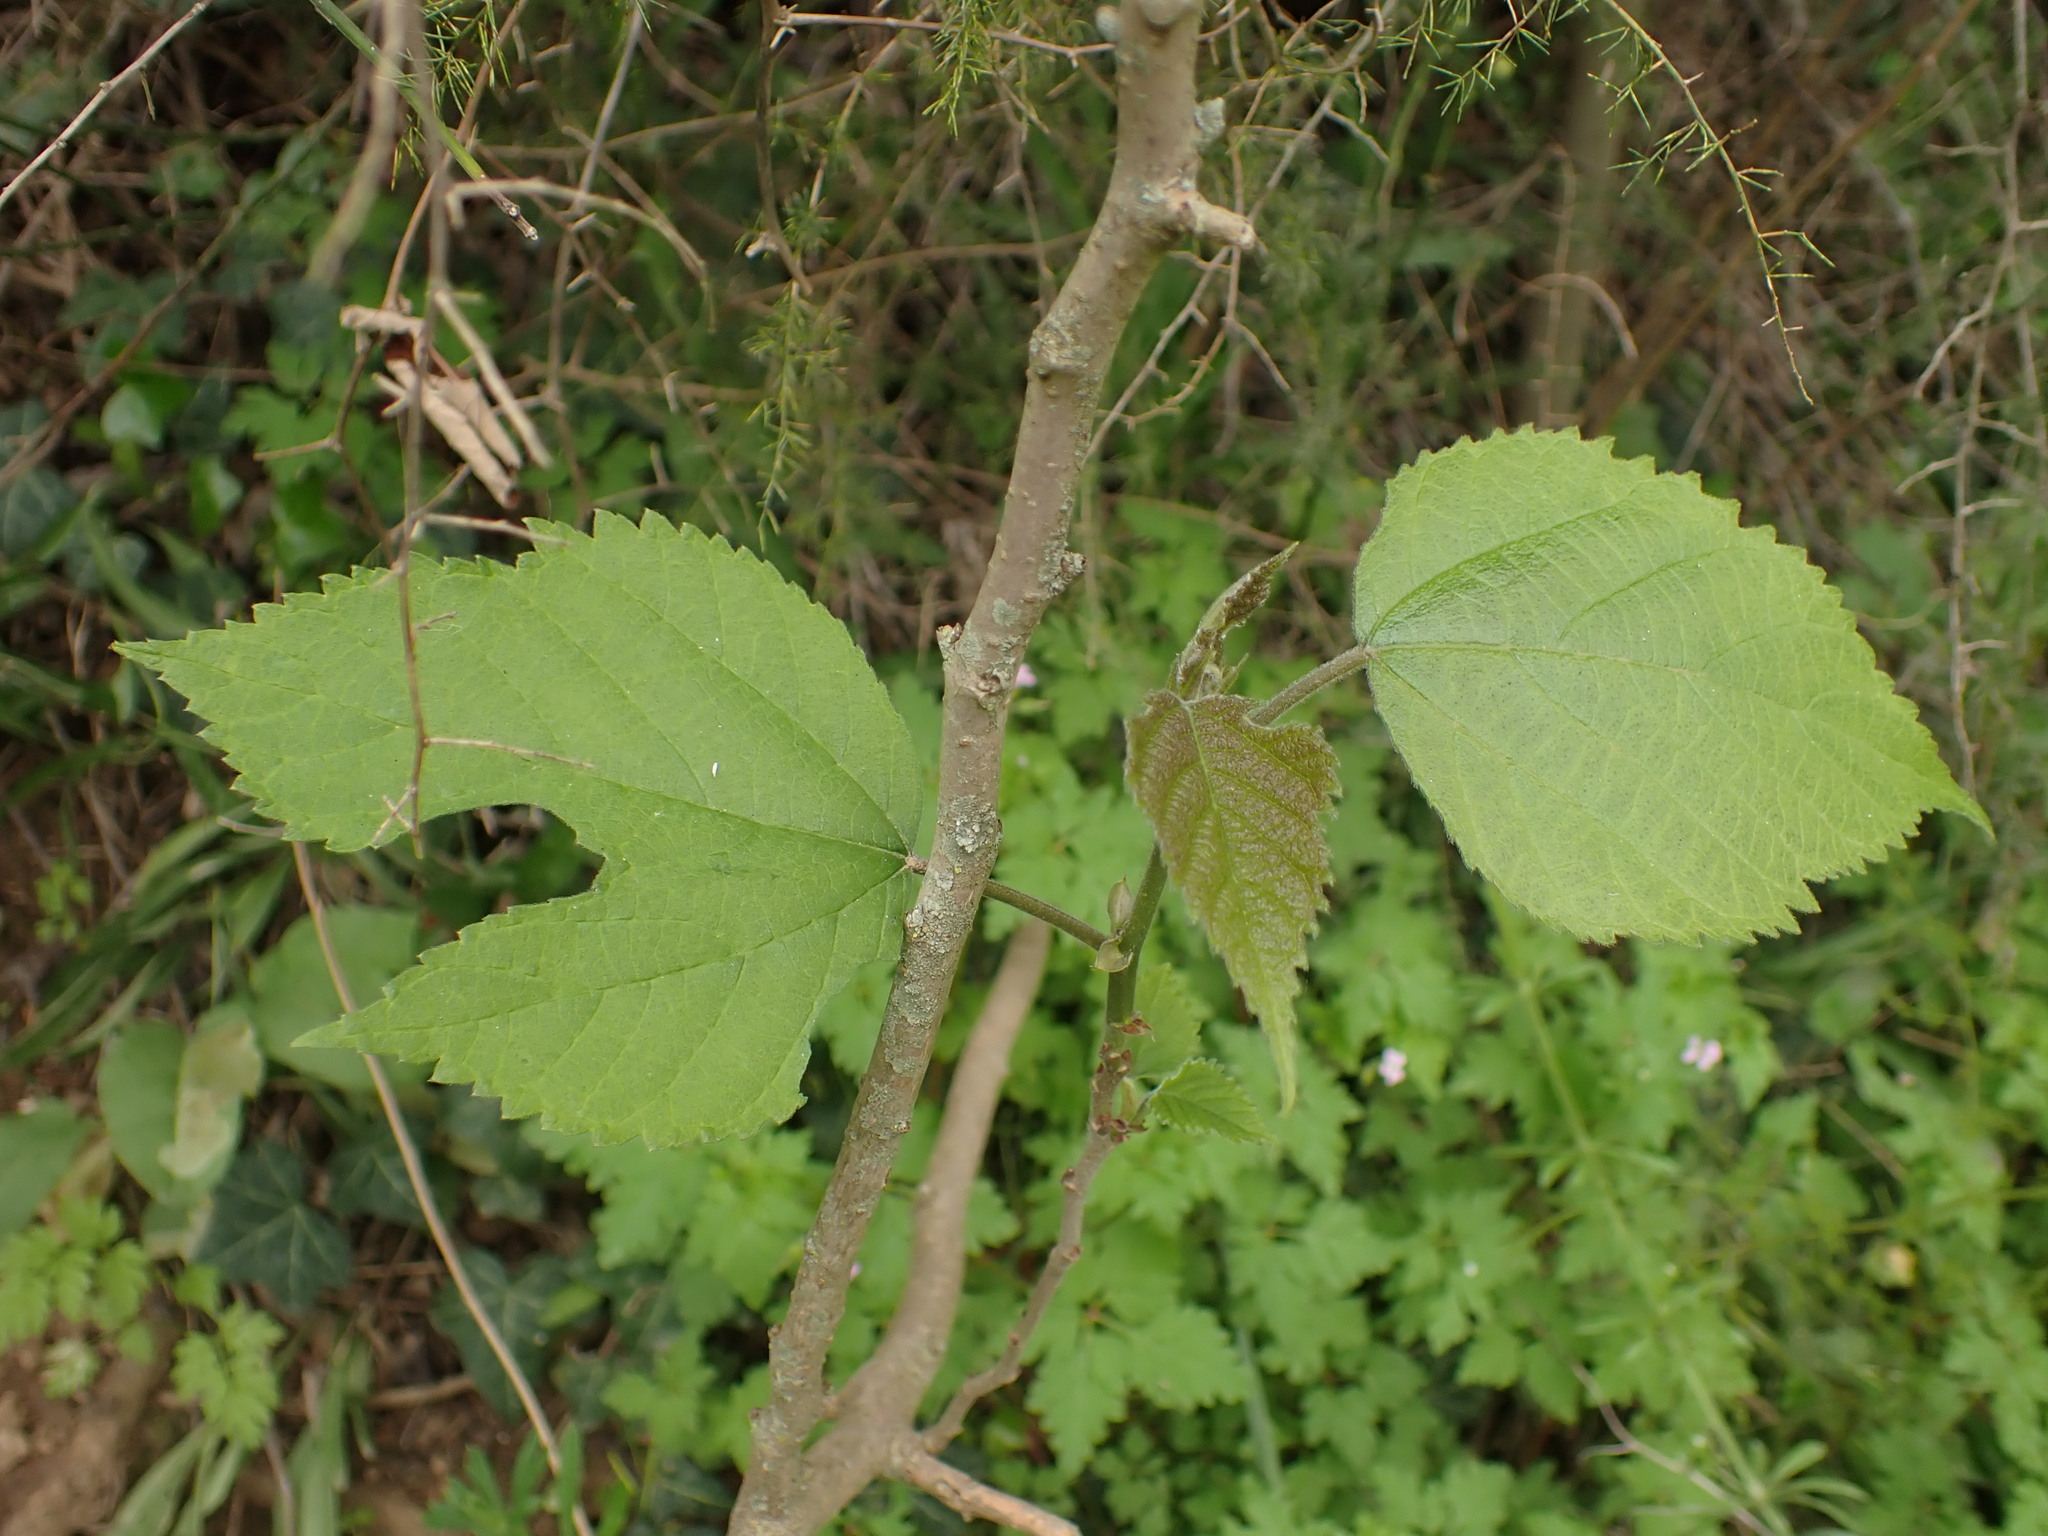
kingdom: Plantae
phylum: Tracheophyta
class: Magnoliopsida
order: Rosales
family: Moraceae
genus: Broussonetia
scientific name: Broussonetia papyrifera
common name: Paper mulberry
